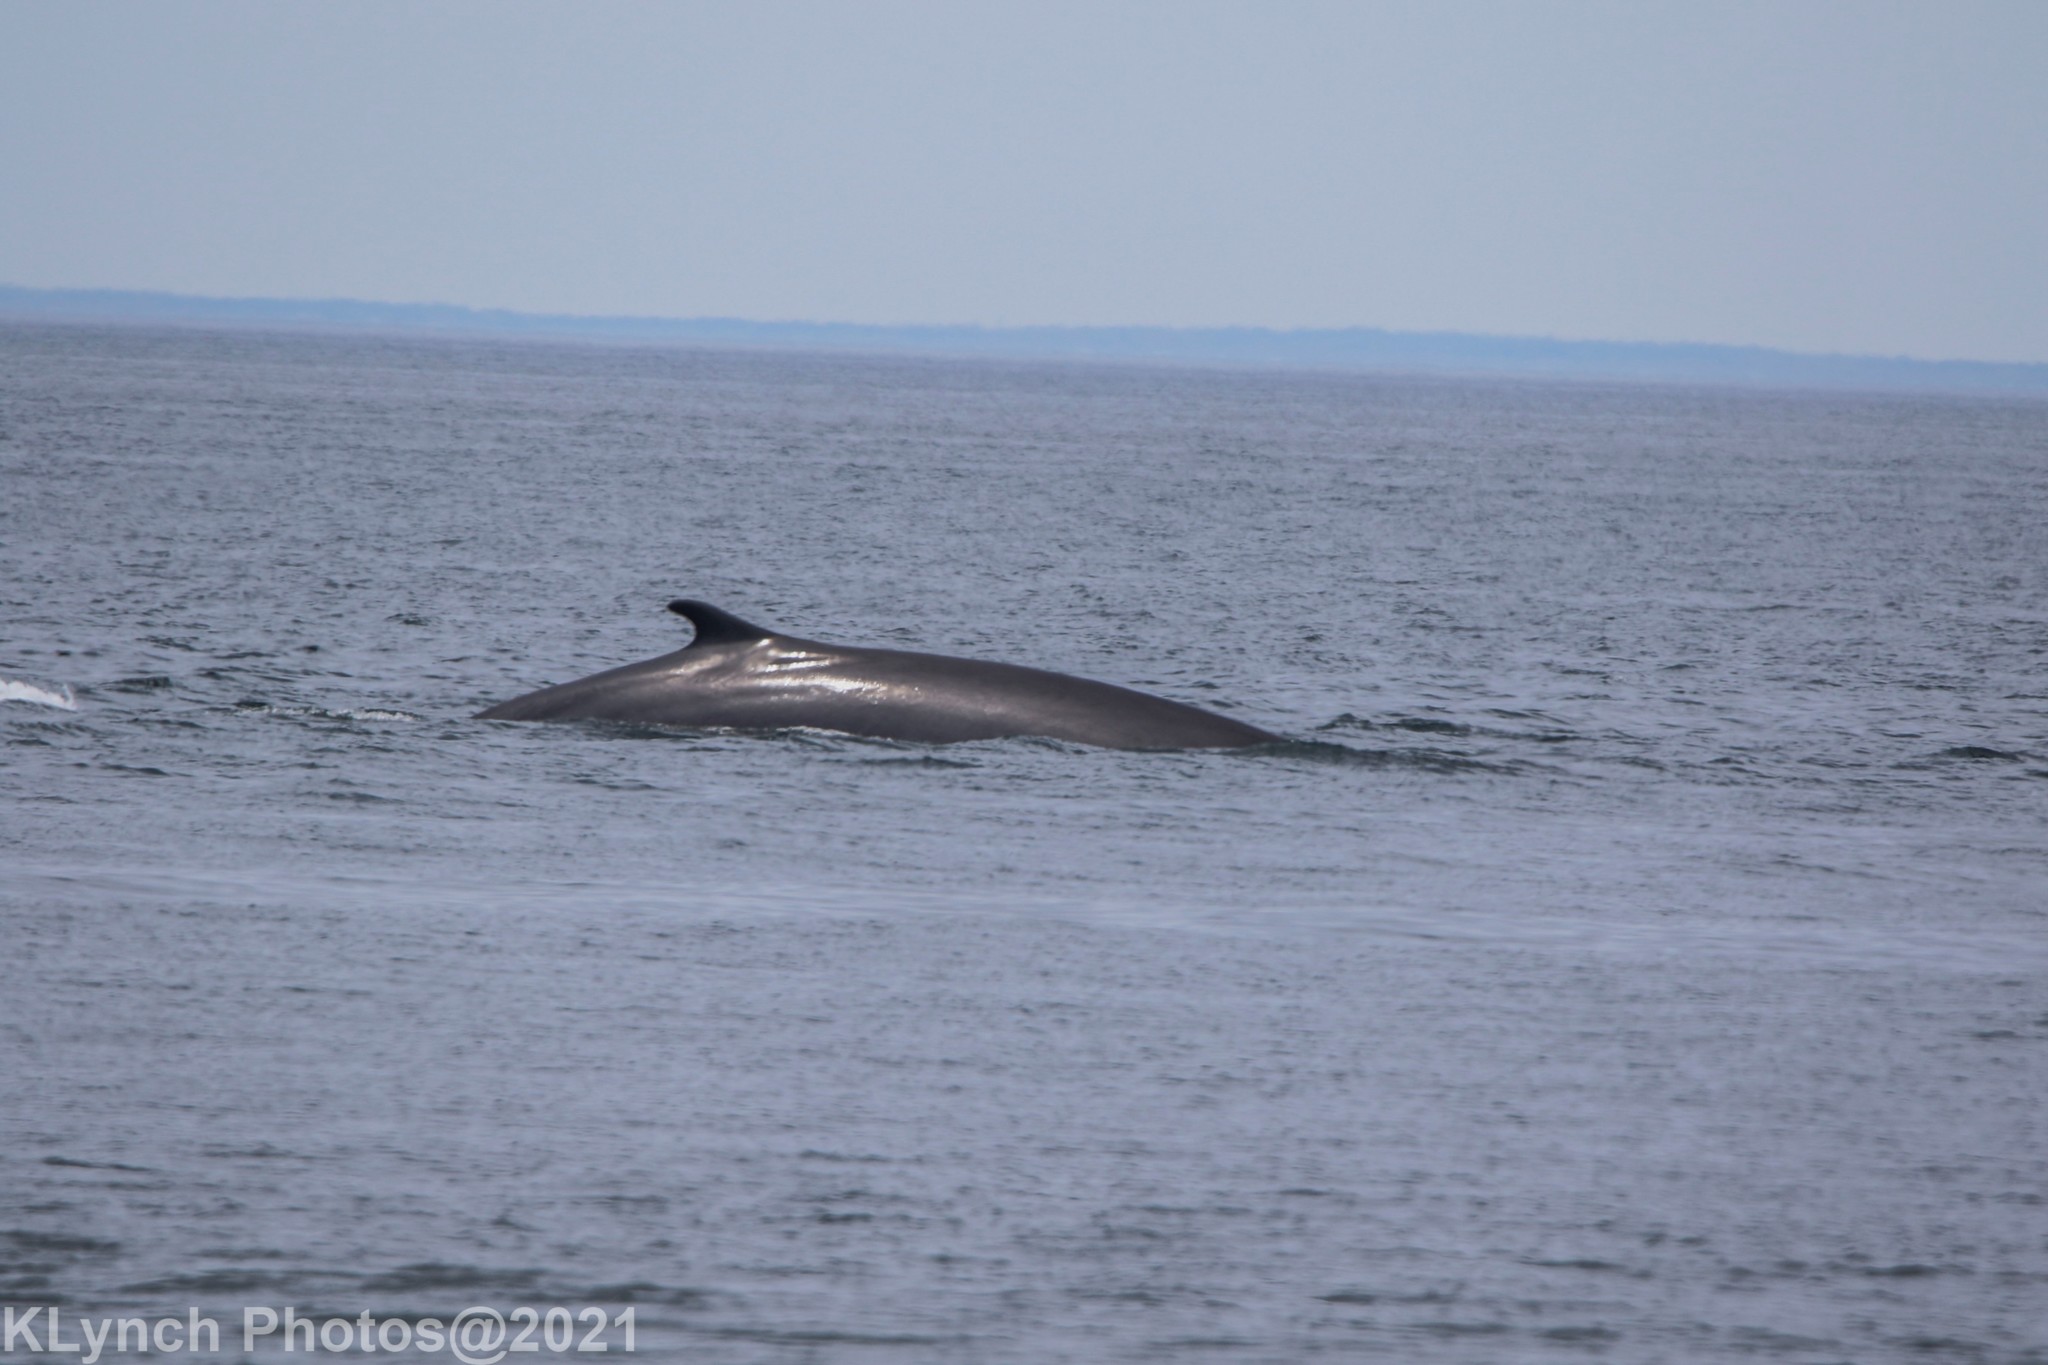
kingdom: Animalia
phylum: Chordata
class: Mammalia
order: Cetacea
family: Balaenopteridae
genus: Balaenoptera
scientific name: Balaenoptera physalus
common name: Fin whale
